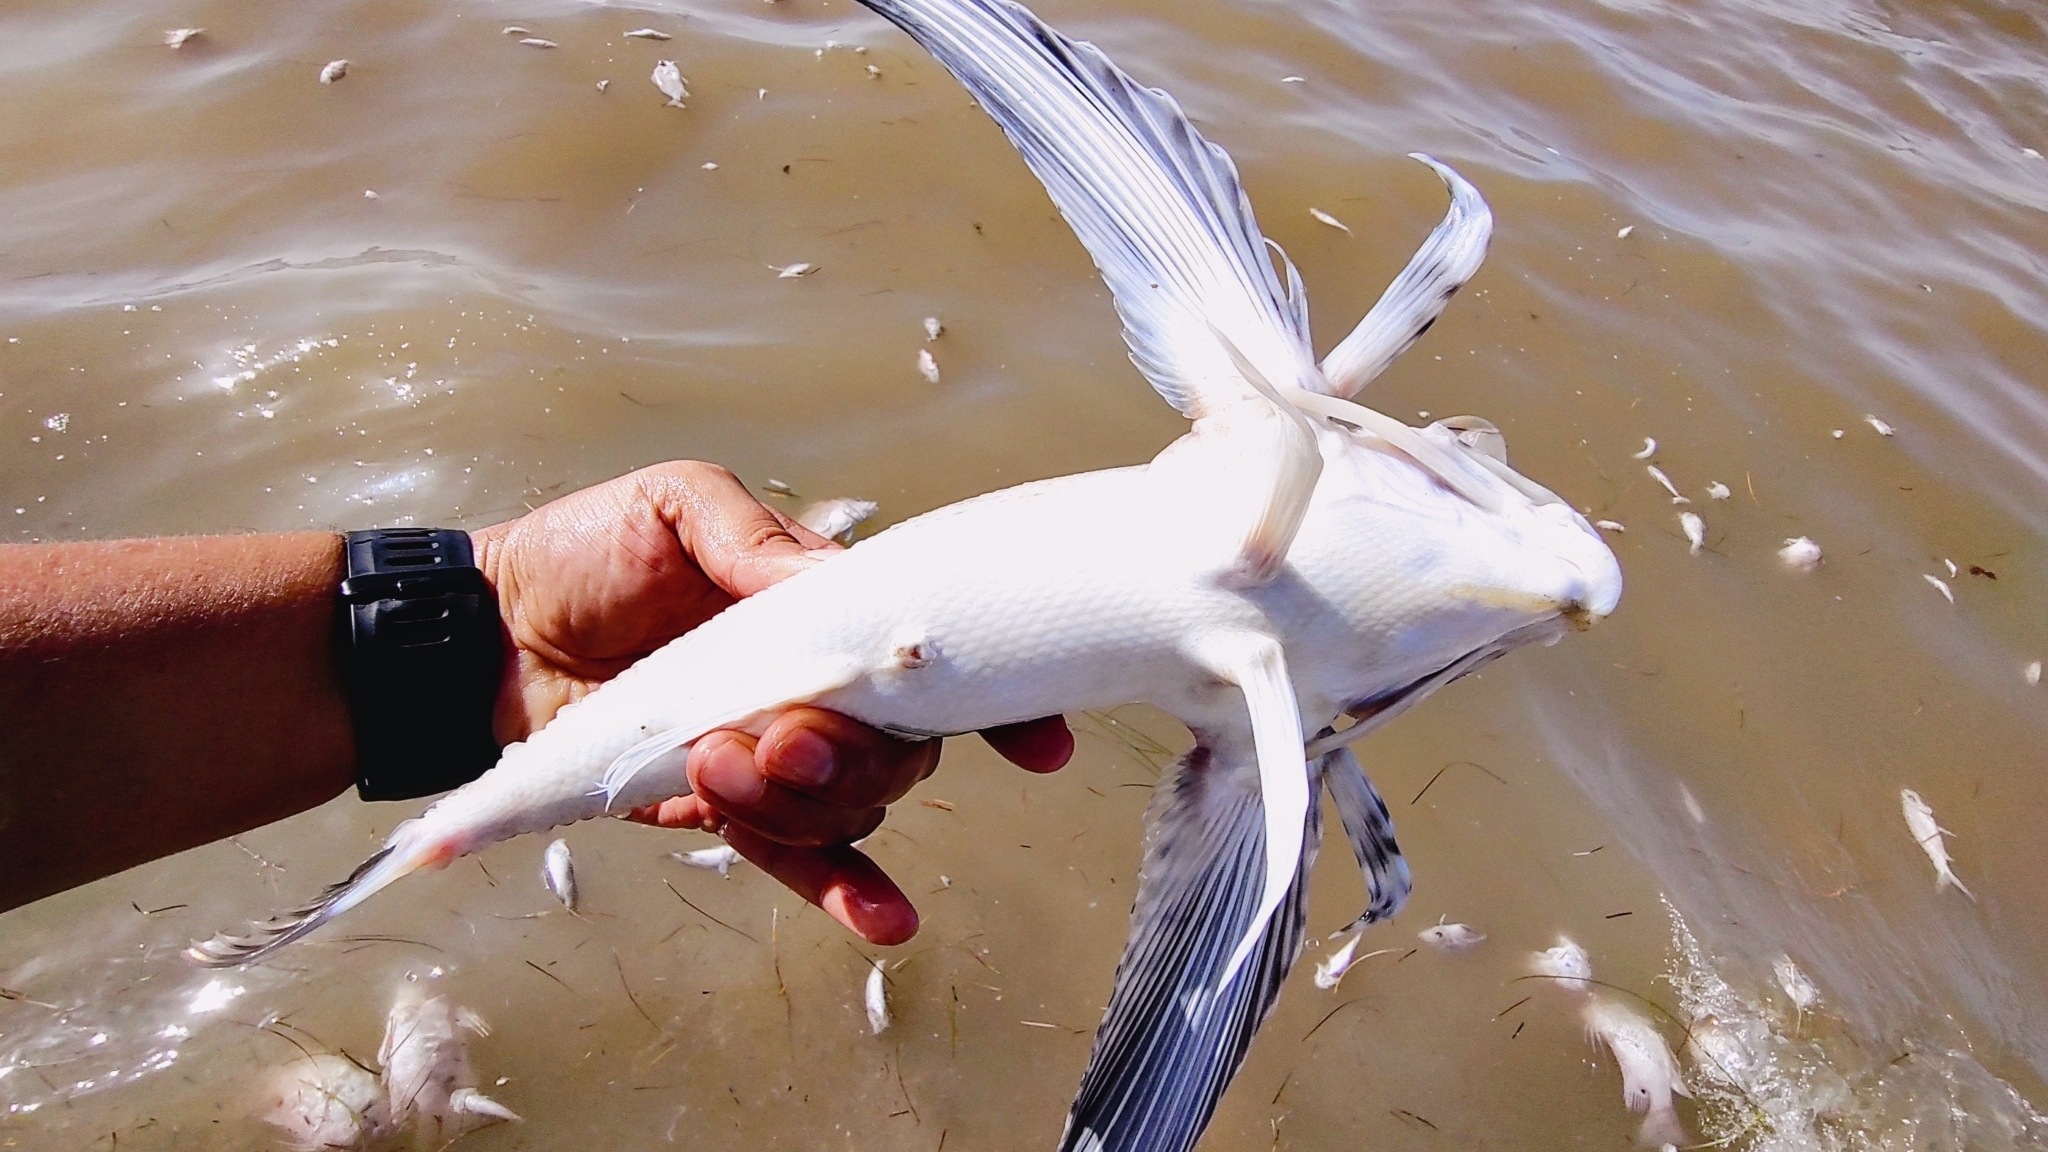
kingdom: Animalia
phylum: Chordata
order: Scorpaeniformes
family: Dactylopteridae
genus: Dactylopterus
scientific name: Dactylopterus volitans
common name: Flying gurnard
